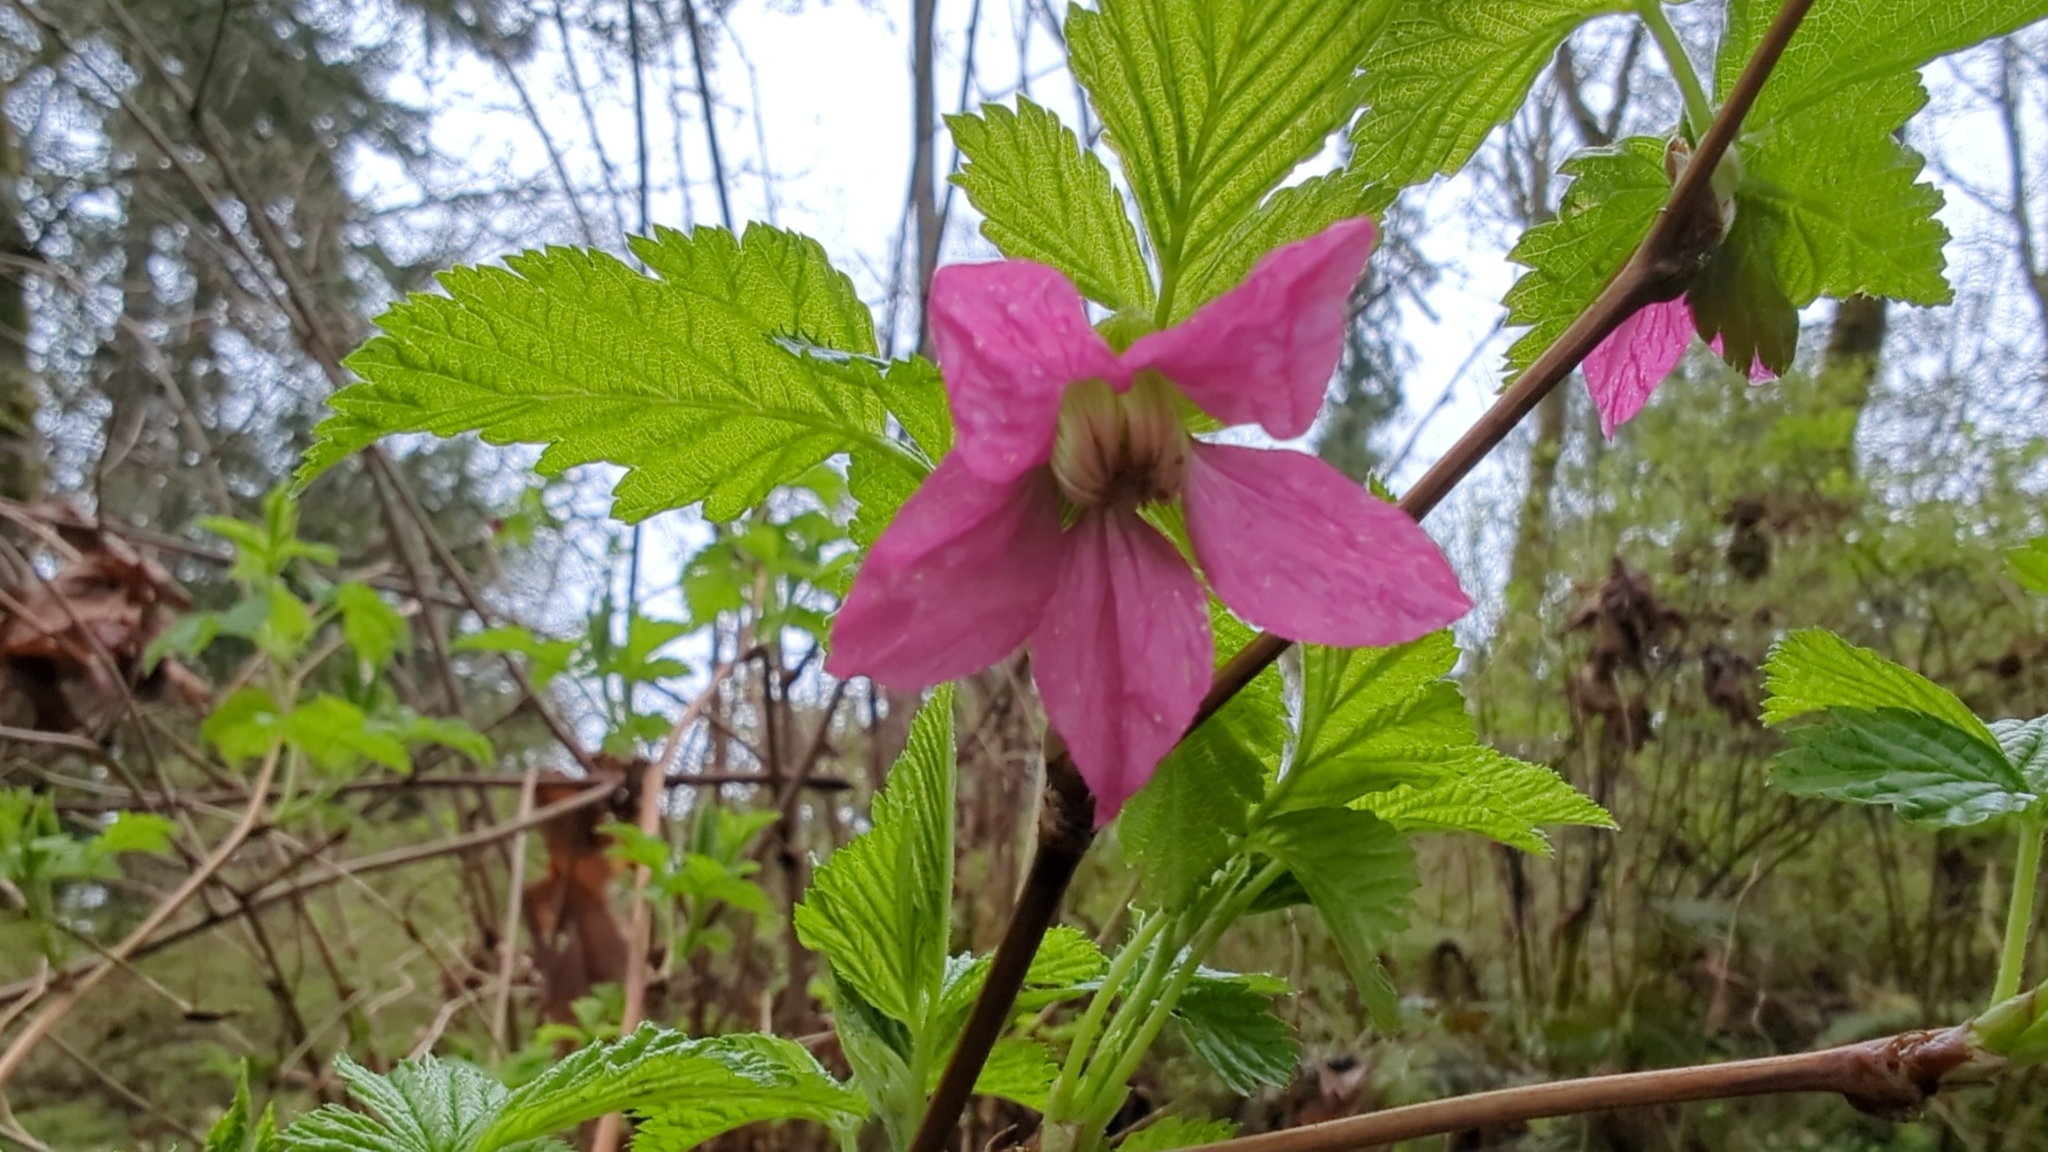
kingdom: Plantae
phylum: Tracheophyta
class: Magnoliopsida
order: Rosales
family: Rosaceae
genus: Rubus
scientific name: Rubus spectabilis
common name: Salmonberry
